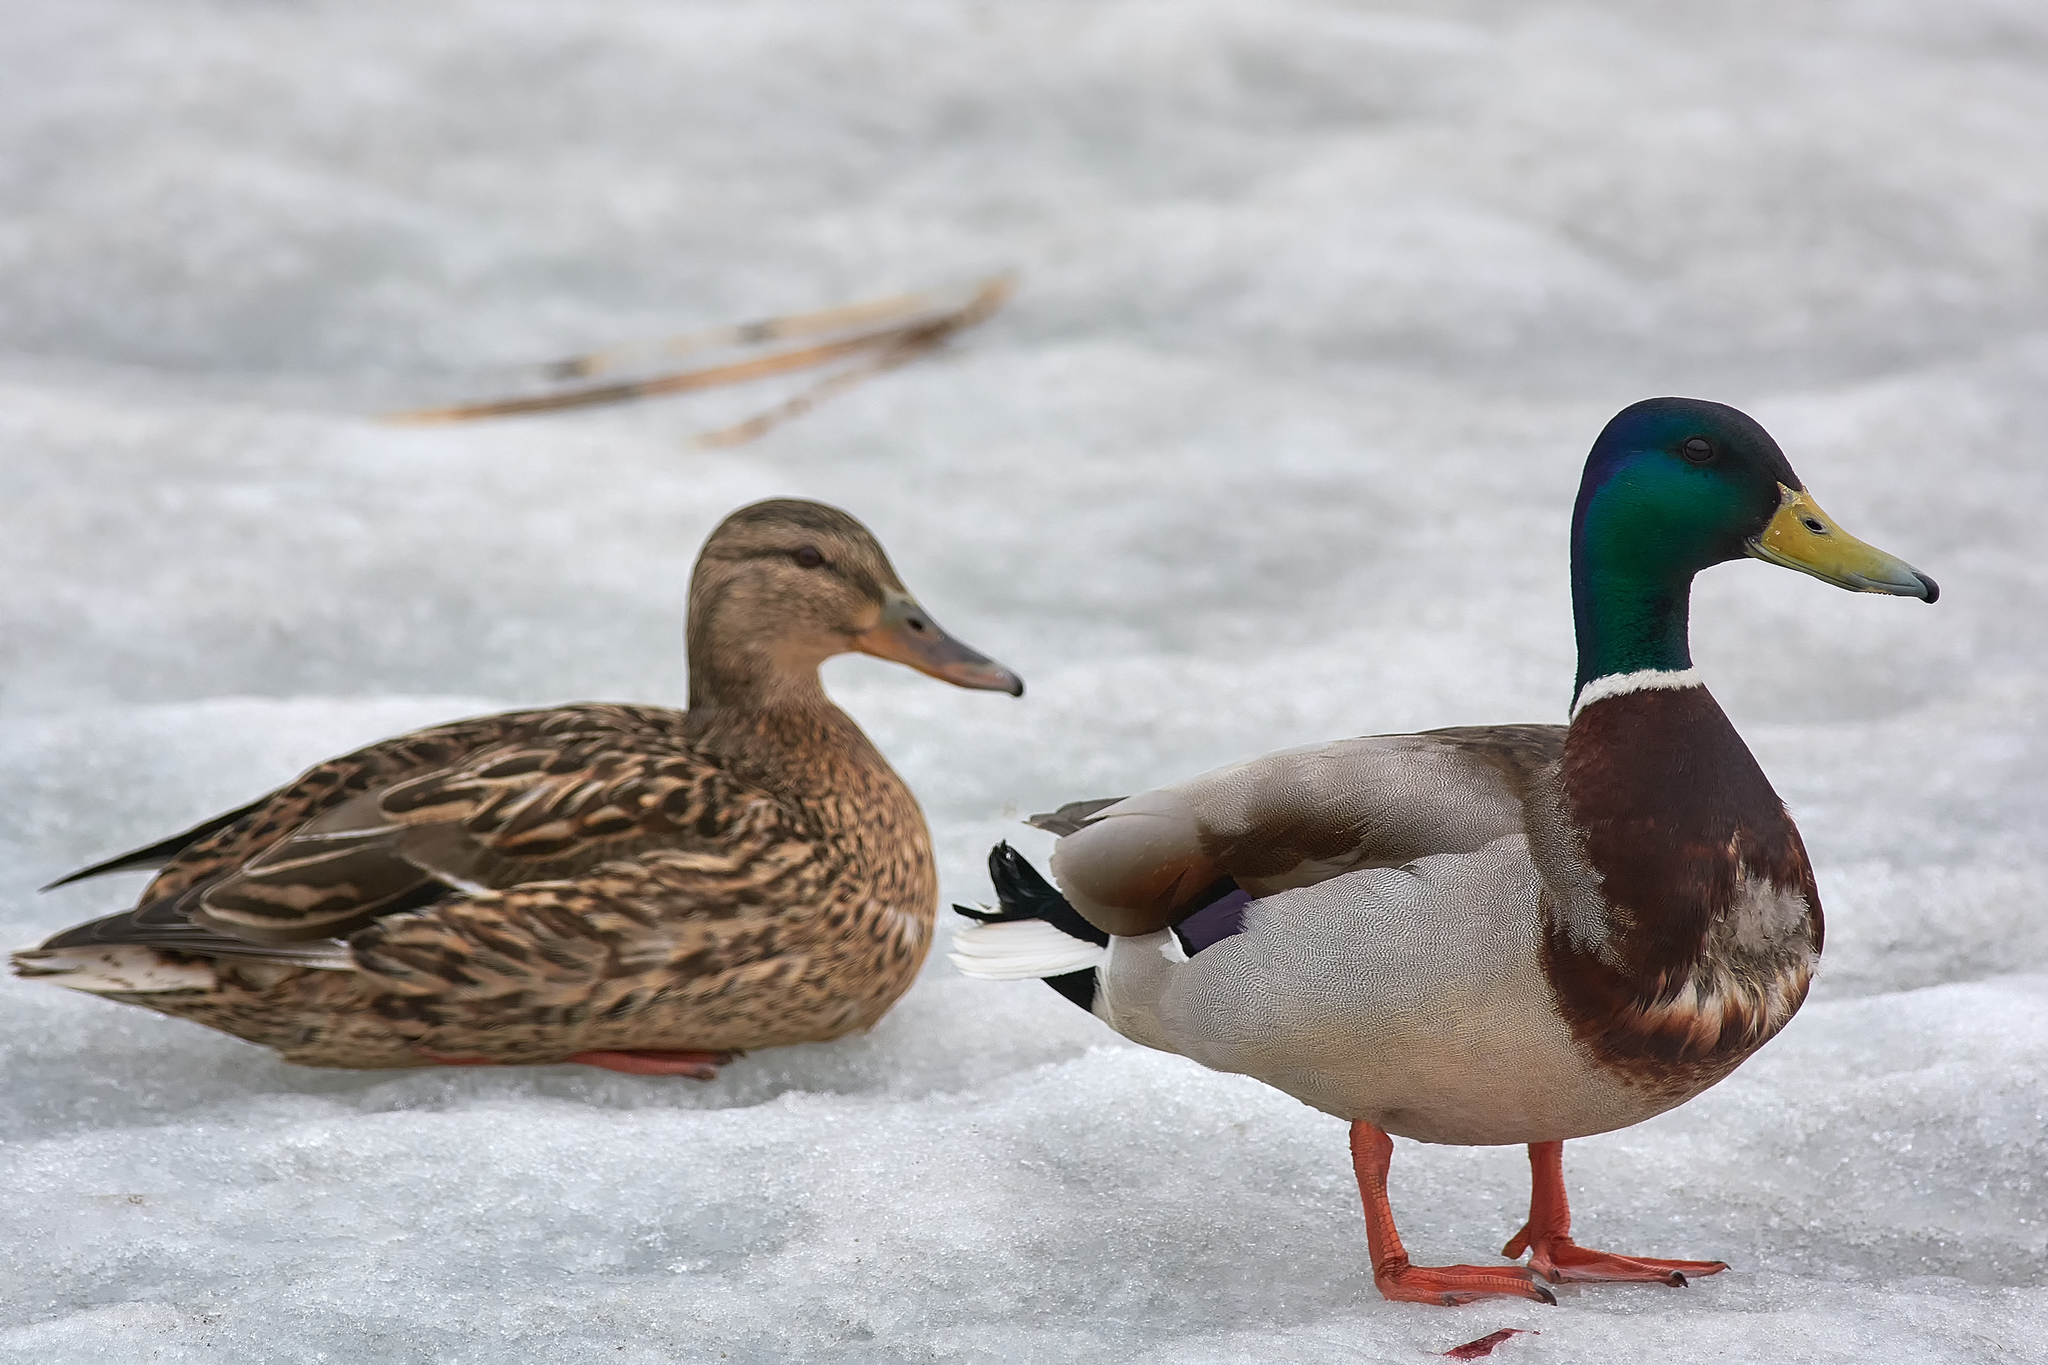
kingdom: Animalia
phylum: Chordata
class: Aves
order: Anseriformes
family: Anatidae
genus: Anas
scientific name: Anas platyrhynchos
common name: Mallard
